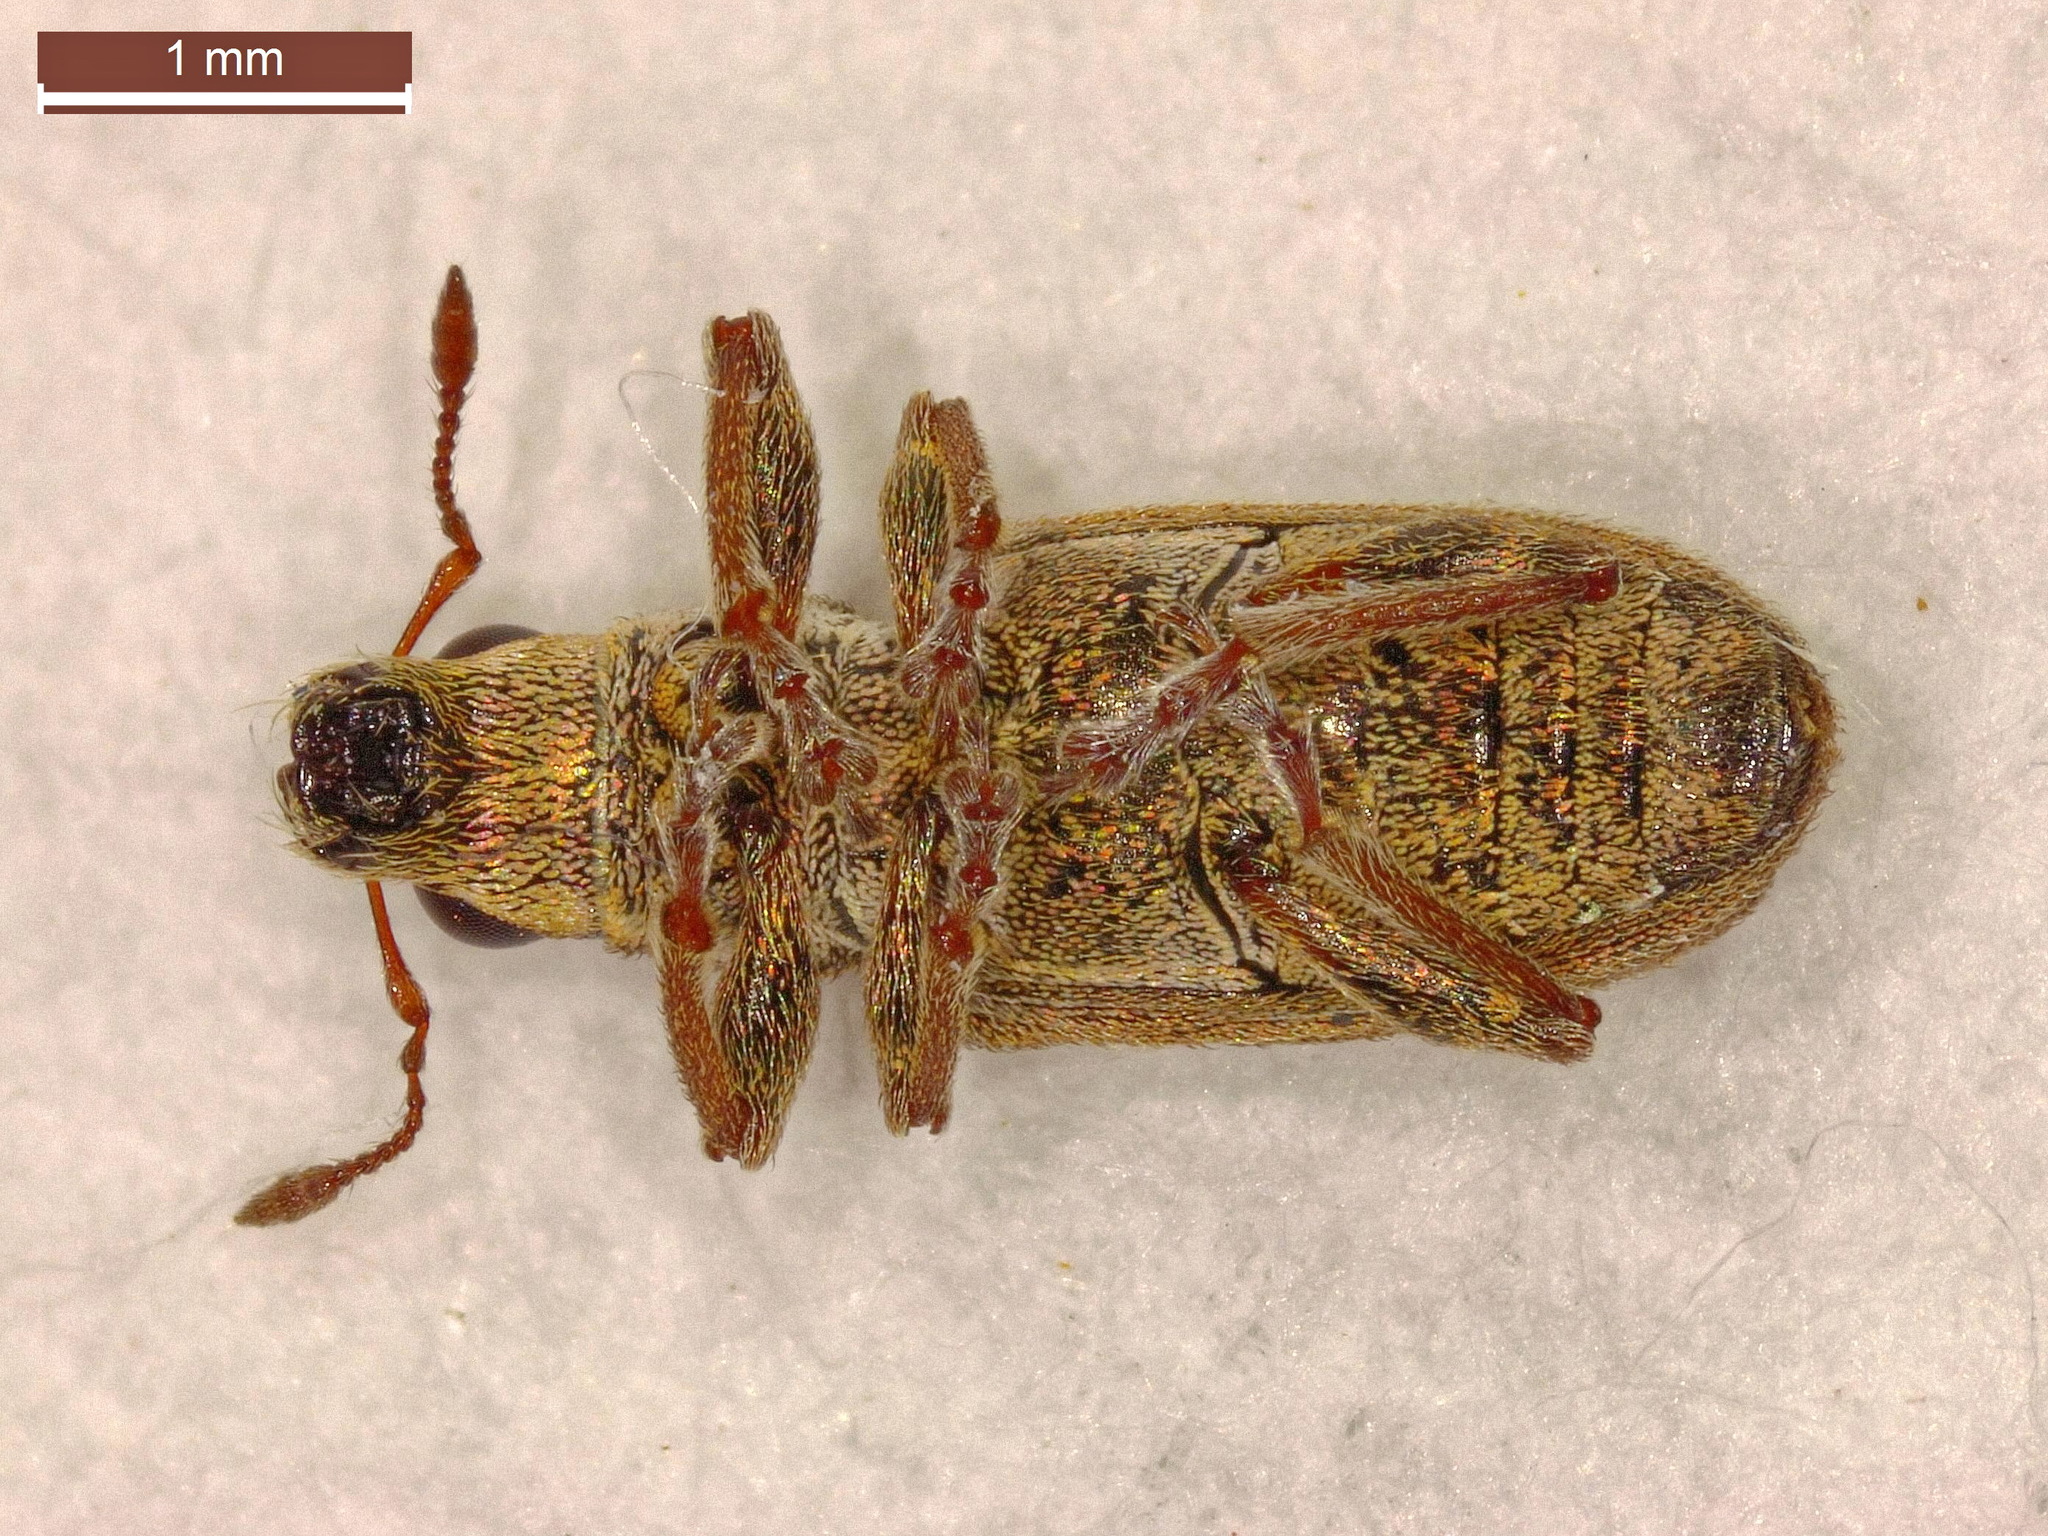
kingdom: Animalia
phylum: Arthropoda
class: Insecta
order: Coleoptera
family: Curculionidae
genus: Sitona
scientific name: Sitona lineatus
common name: Weevil
